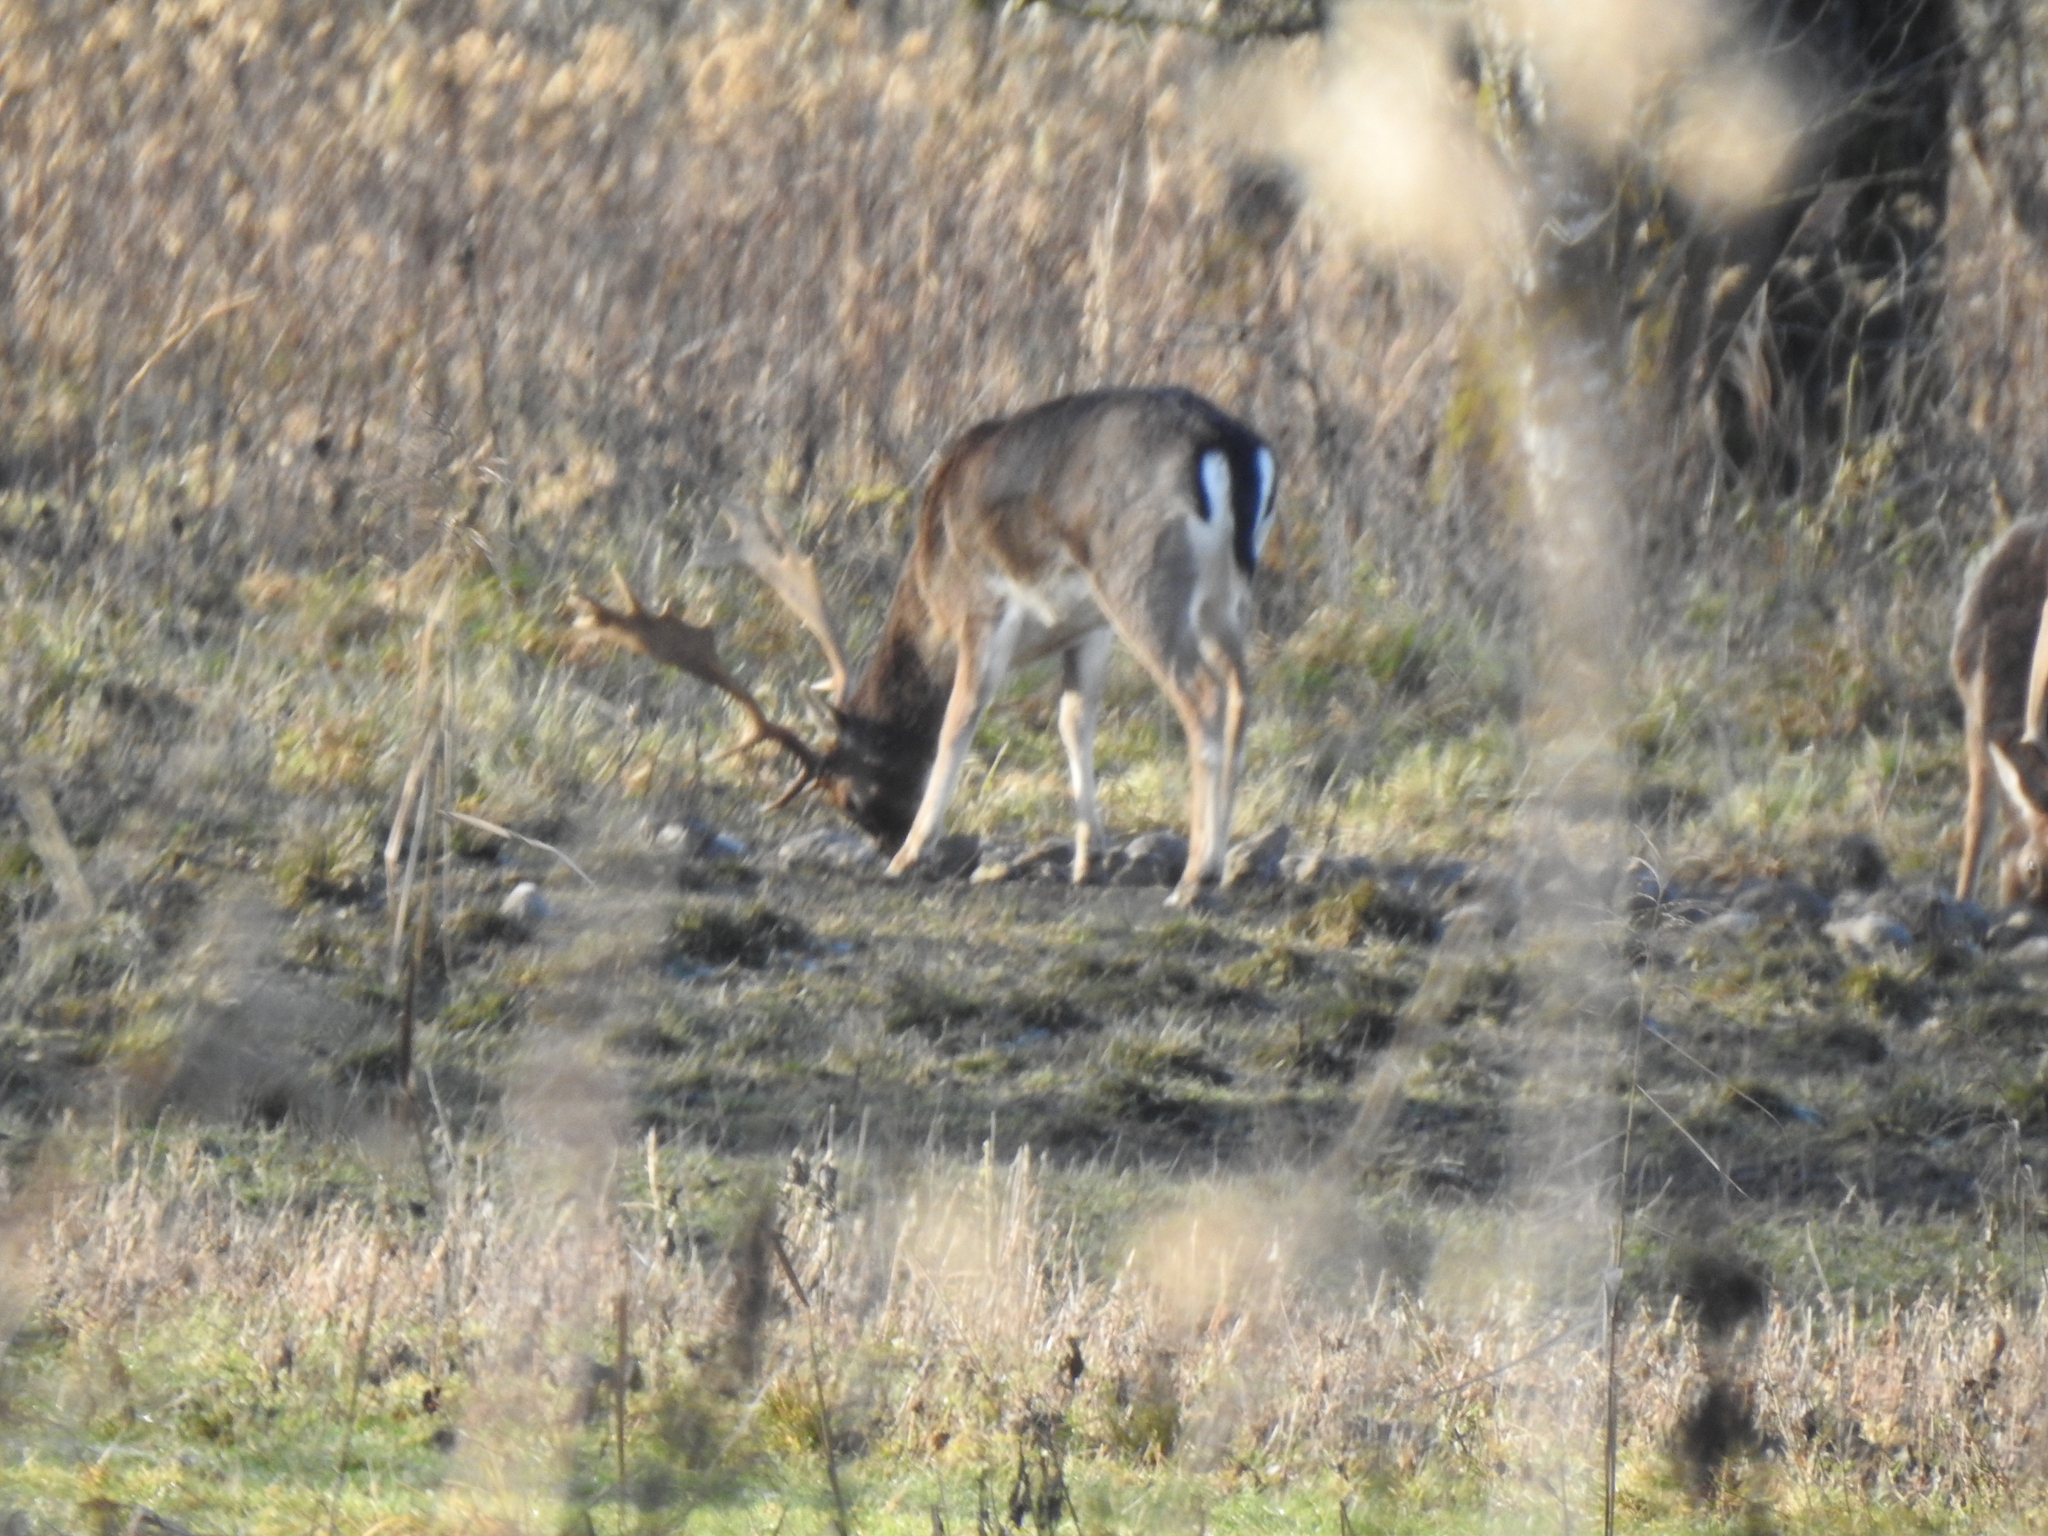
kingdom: Animalia
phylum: Chordata
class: Mammalia
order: Artiodactyla
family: Cervidae
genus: Dama
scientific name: Dama dama
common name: Fallow deer
